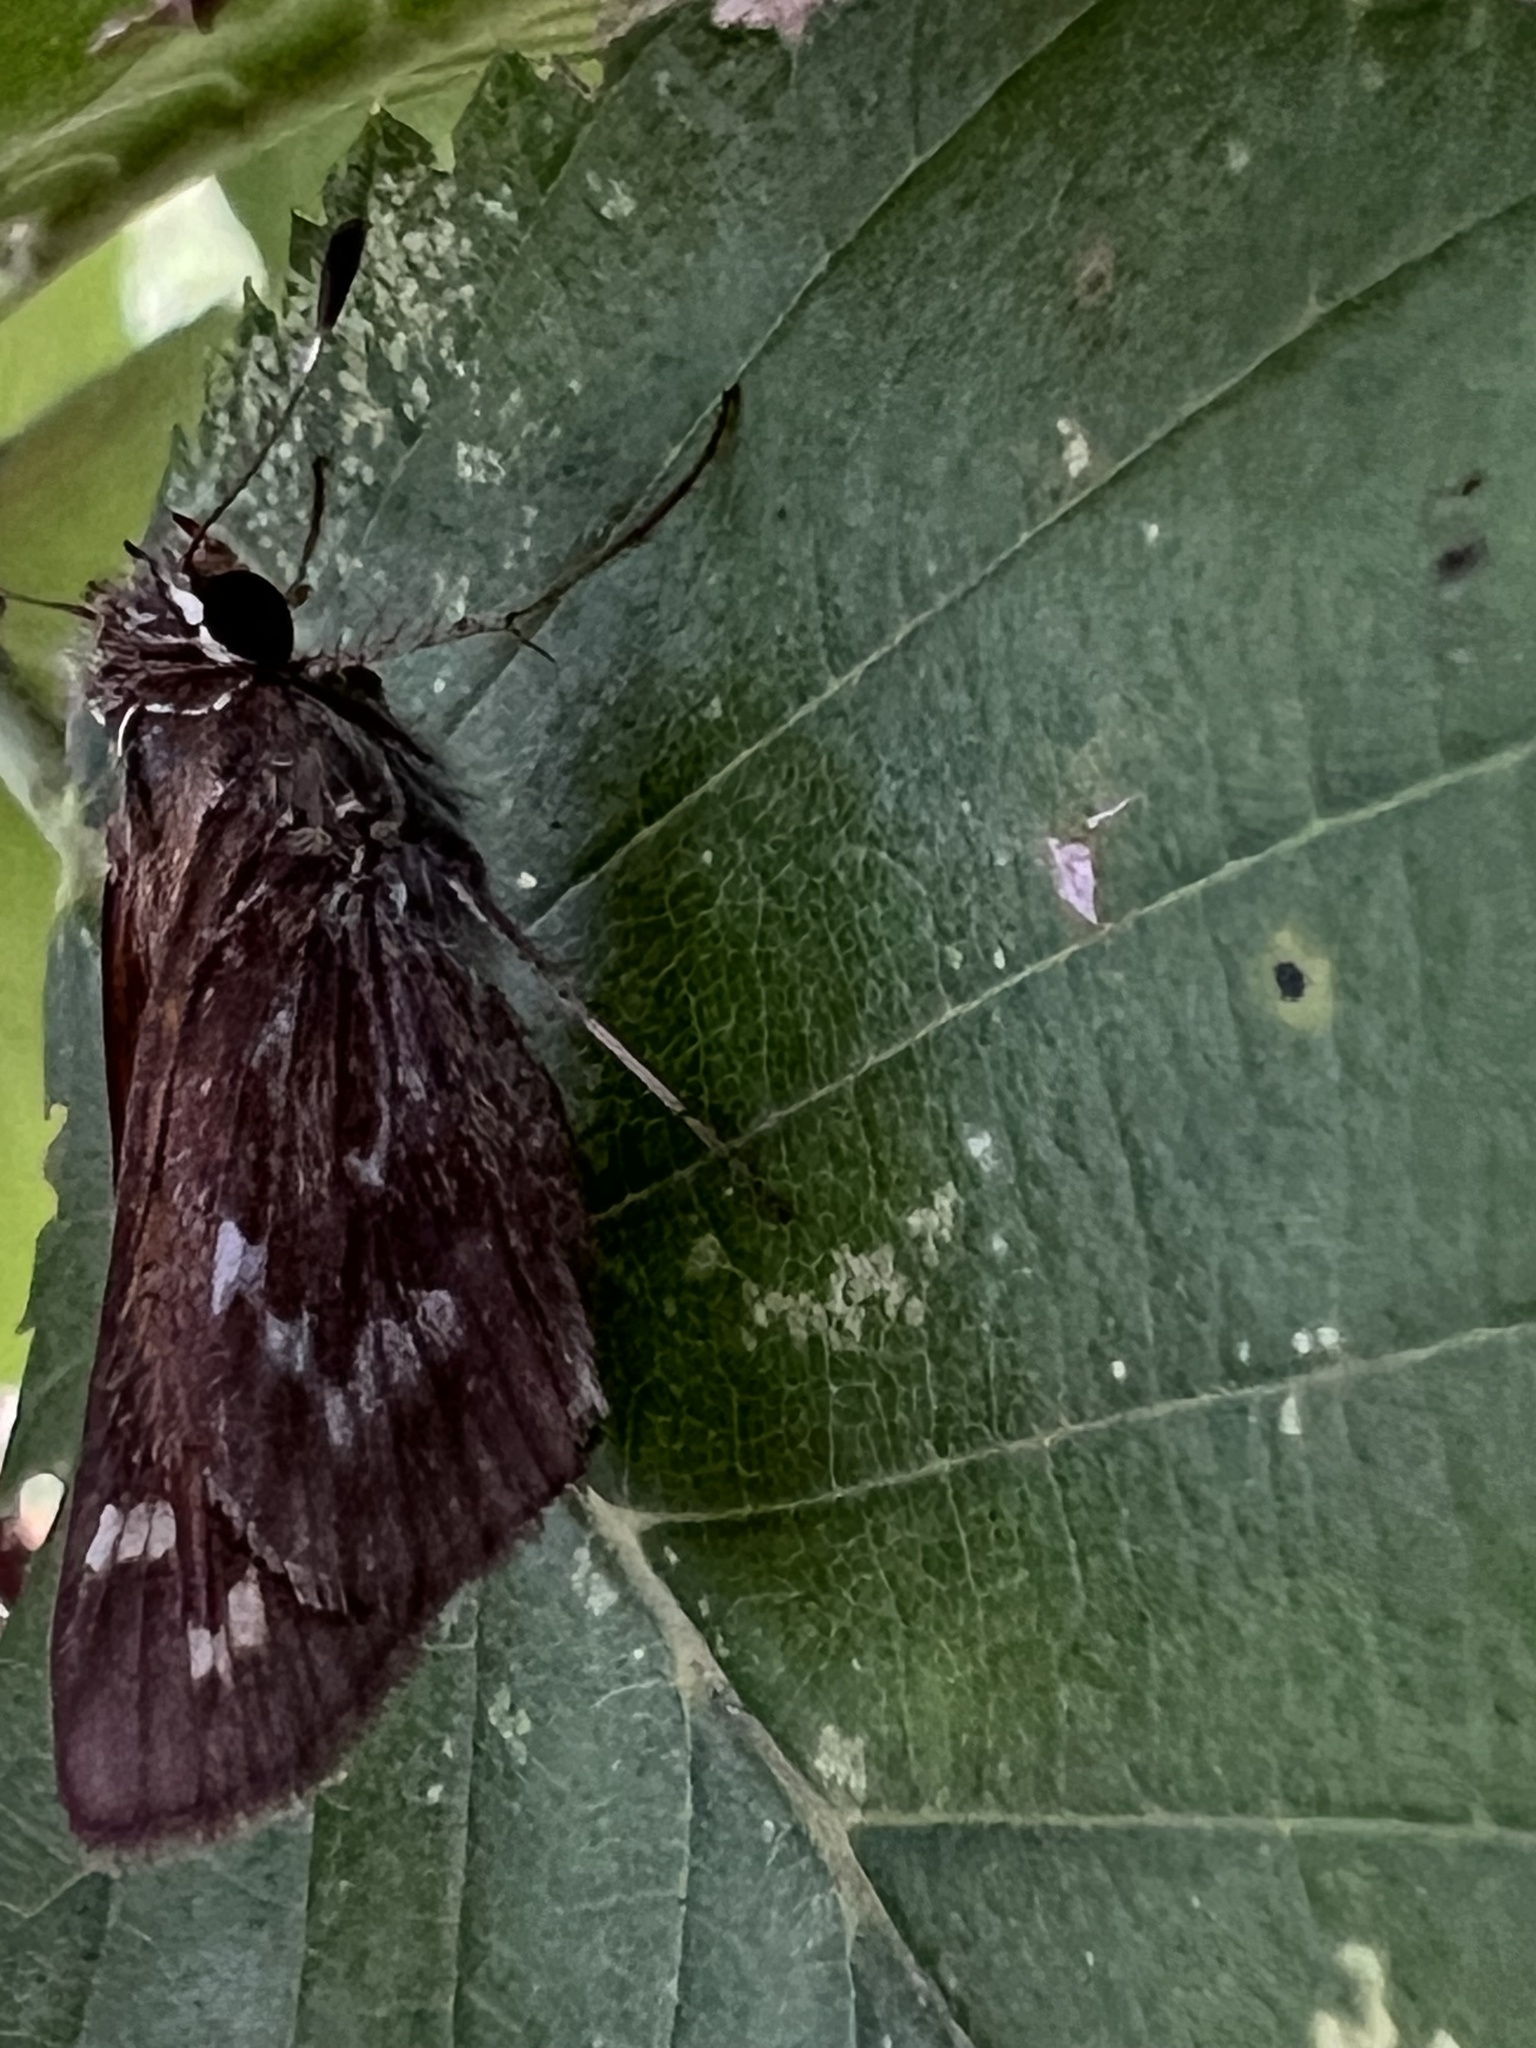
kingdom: Animalia
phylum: Arthropoda
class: Insecta
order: Lepidoptera
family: Hesperiidae
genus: Atalopedes
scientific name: Atalopedes
